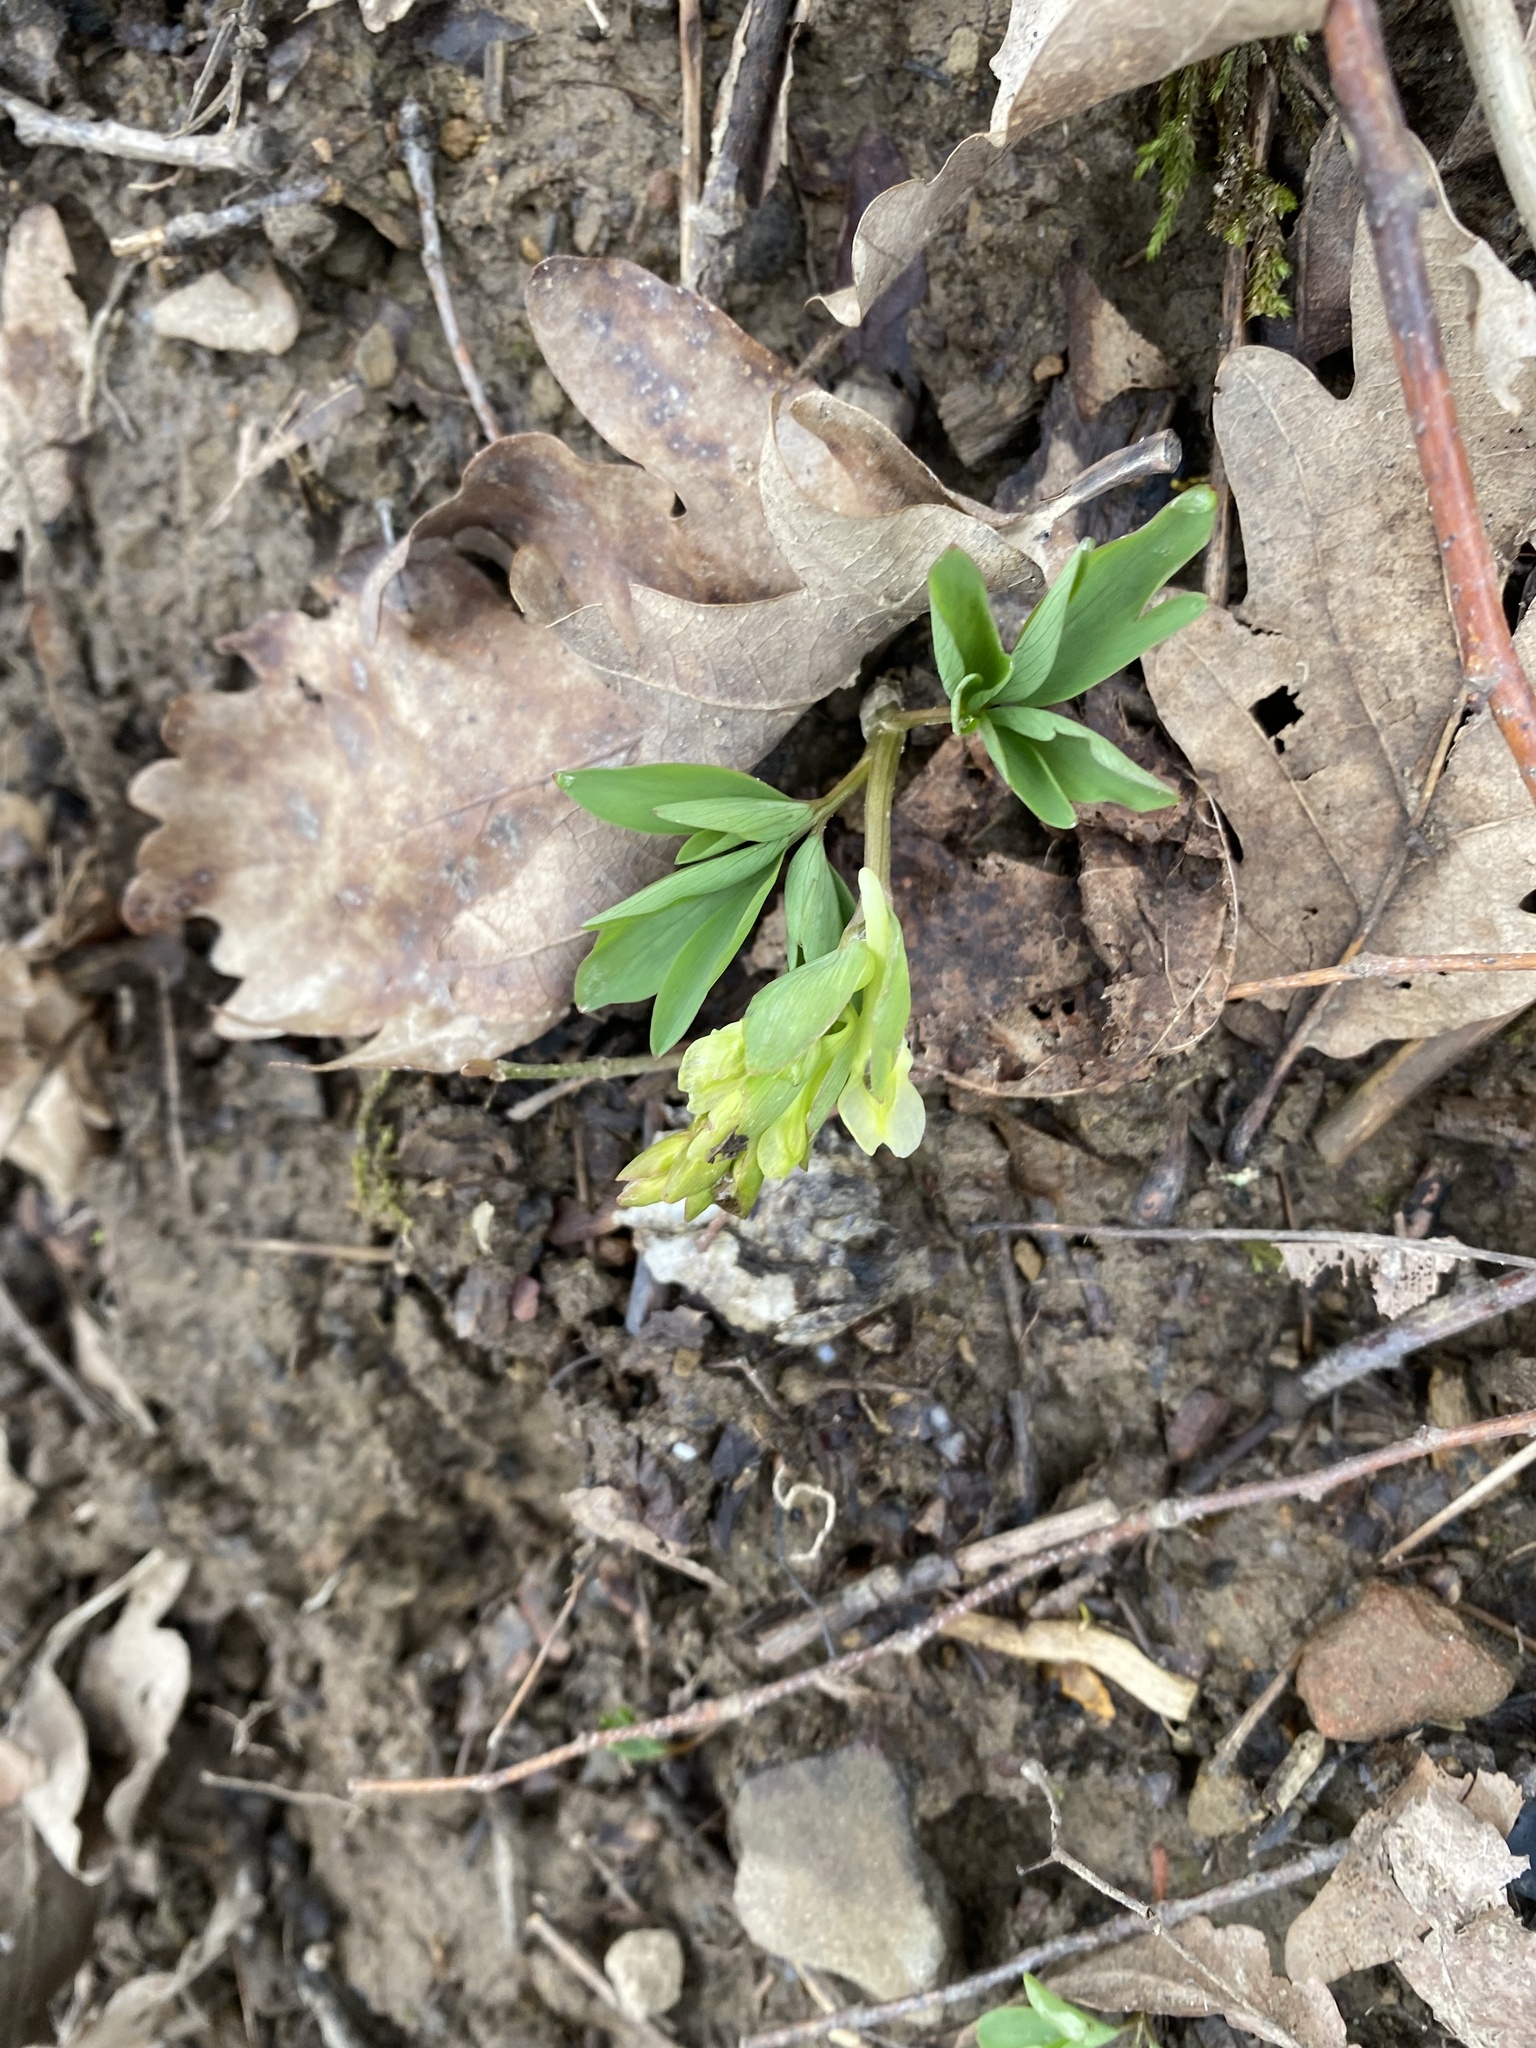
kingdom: Plantae
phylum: Tracheophyta
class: Magnoliopsida
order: Ranunculales
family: Papaveraceae
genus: Corydalis
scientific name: Corydalis cava
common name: Hollowroot
